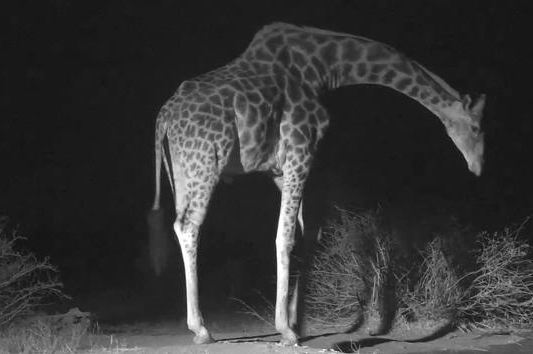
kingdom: Animalia
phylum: Chordata
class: Mammalia
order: Artiodactyla
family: Giraffidae
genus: Giraffa
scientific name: Giraffa giraffa
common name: Southern giraffe
